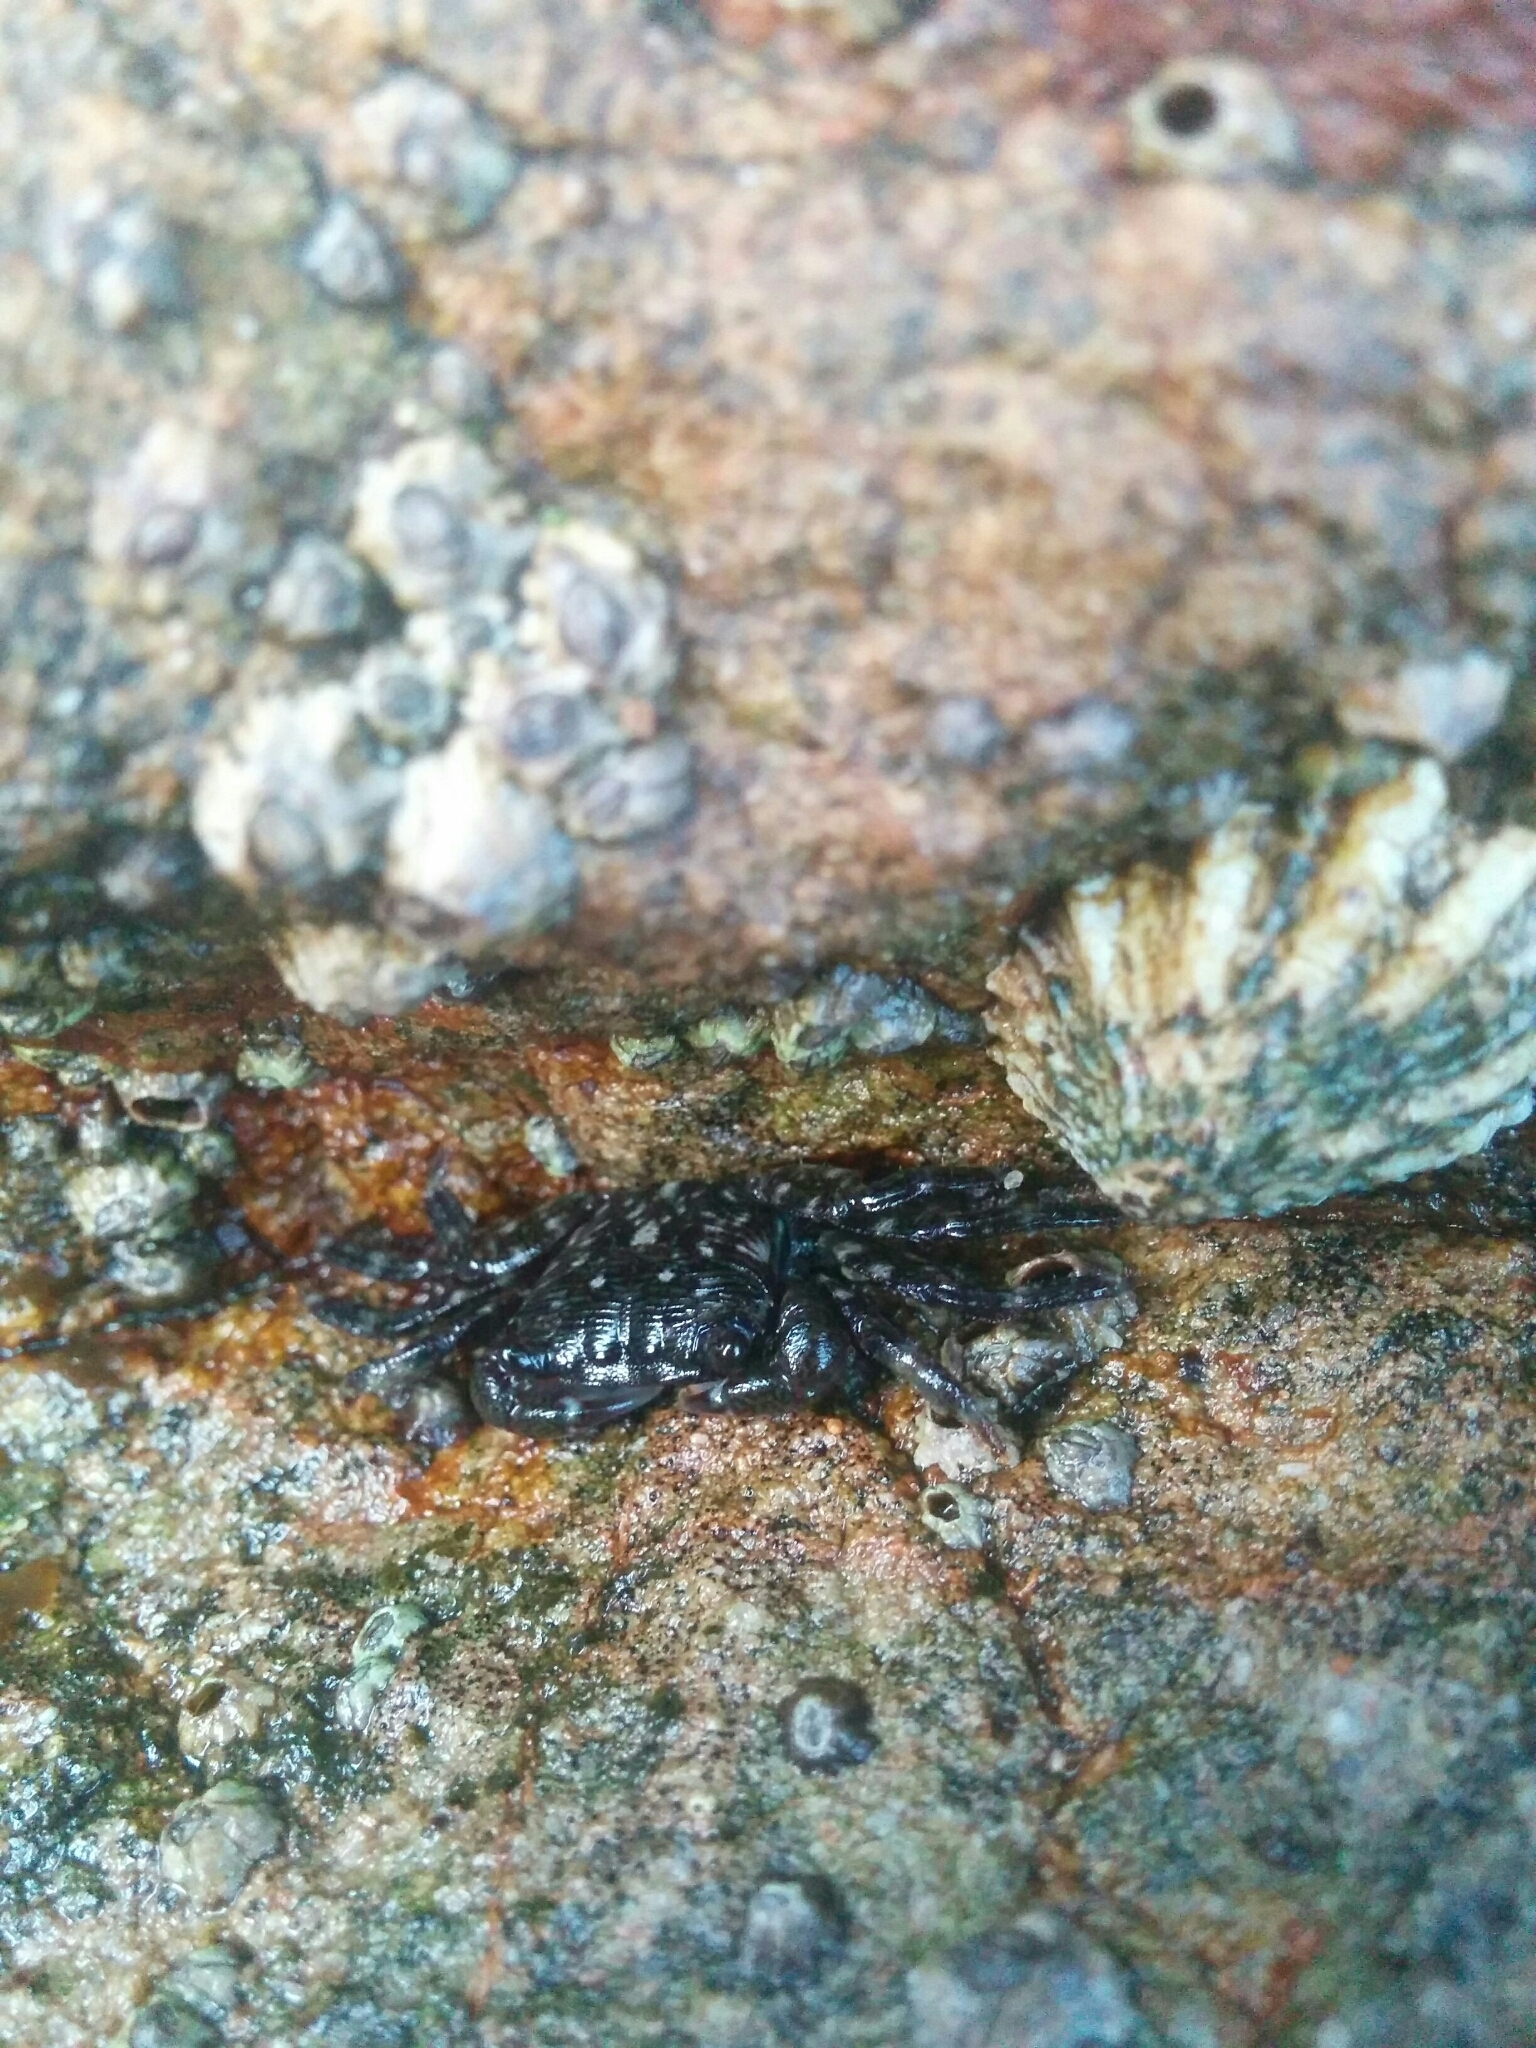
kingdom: Animalia
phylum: Arthropoda
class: Malacostraca
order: Decapoda
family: Grapsidae
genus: Pachygrapsus
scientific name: Pachygrapsus crassipes
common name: Striped shore crab
